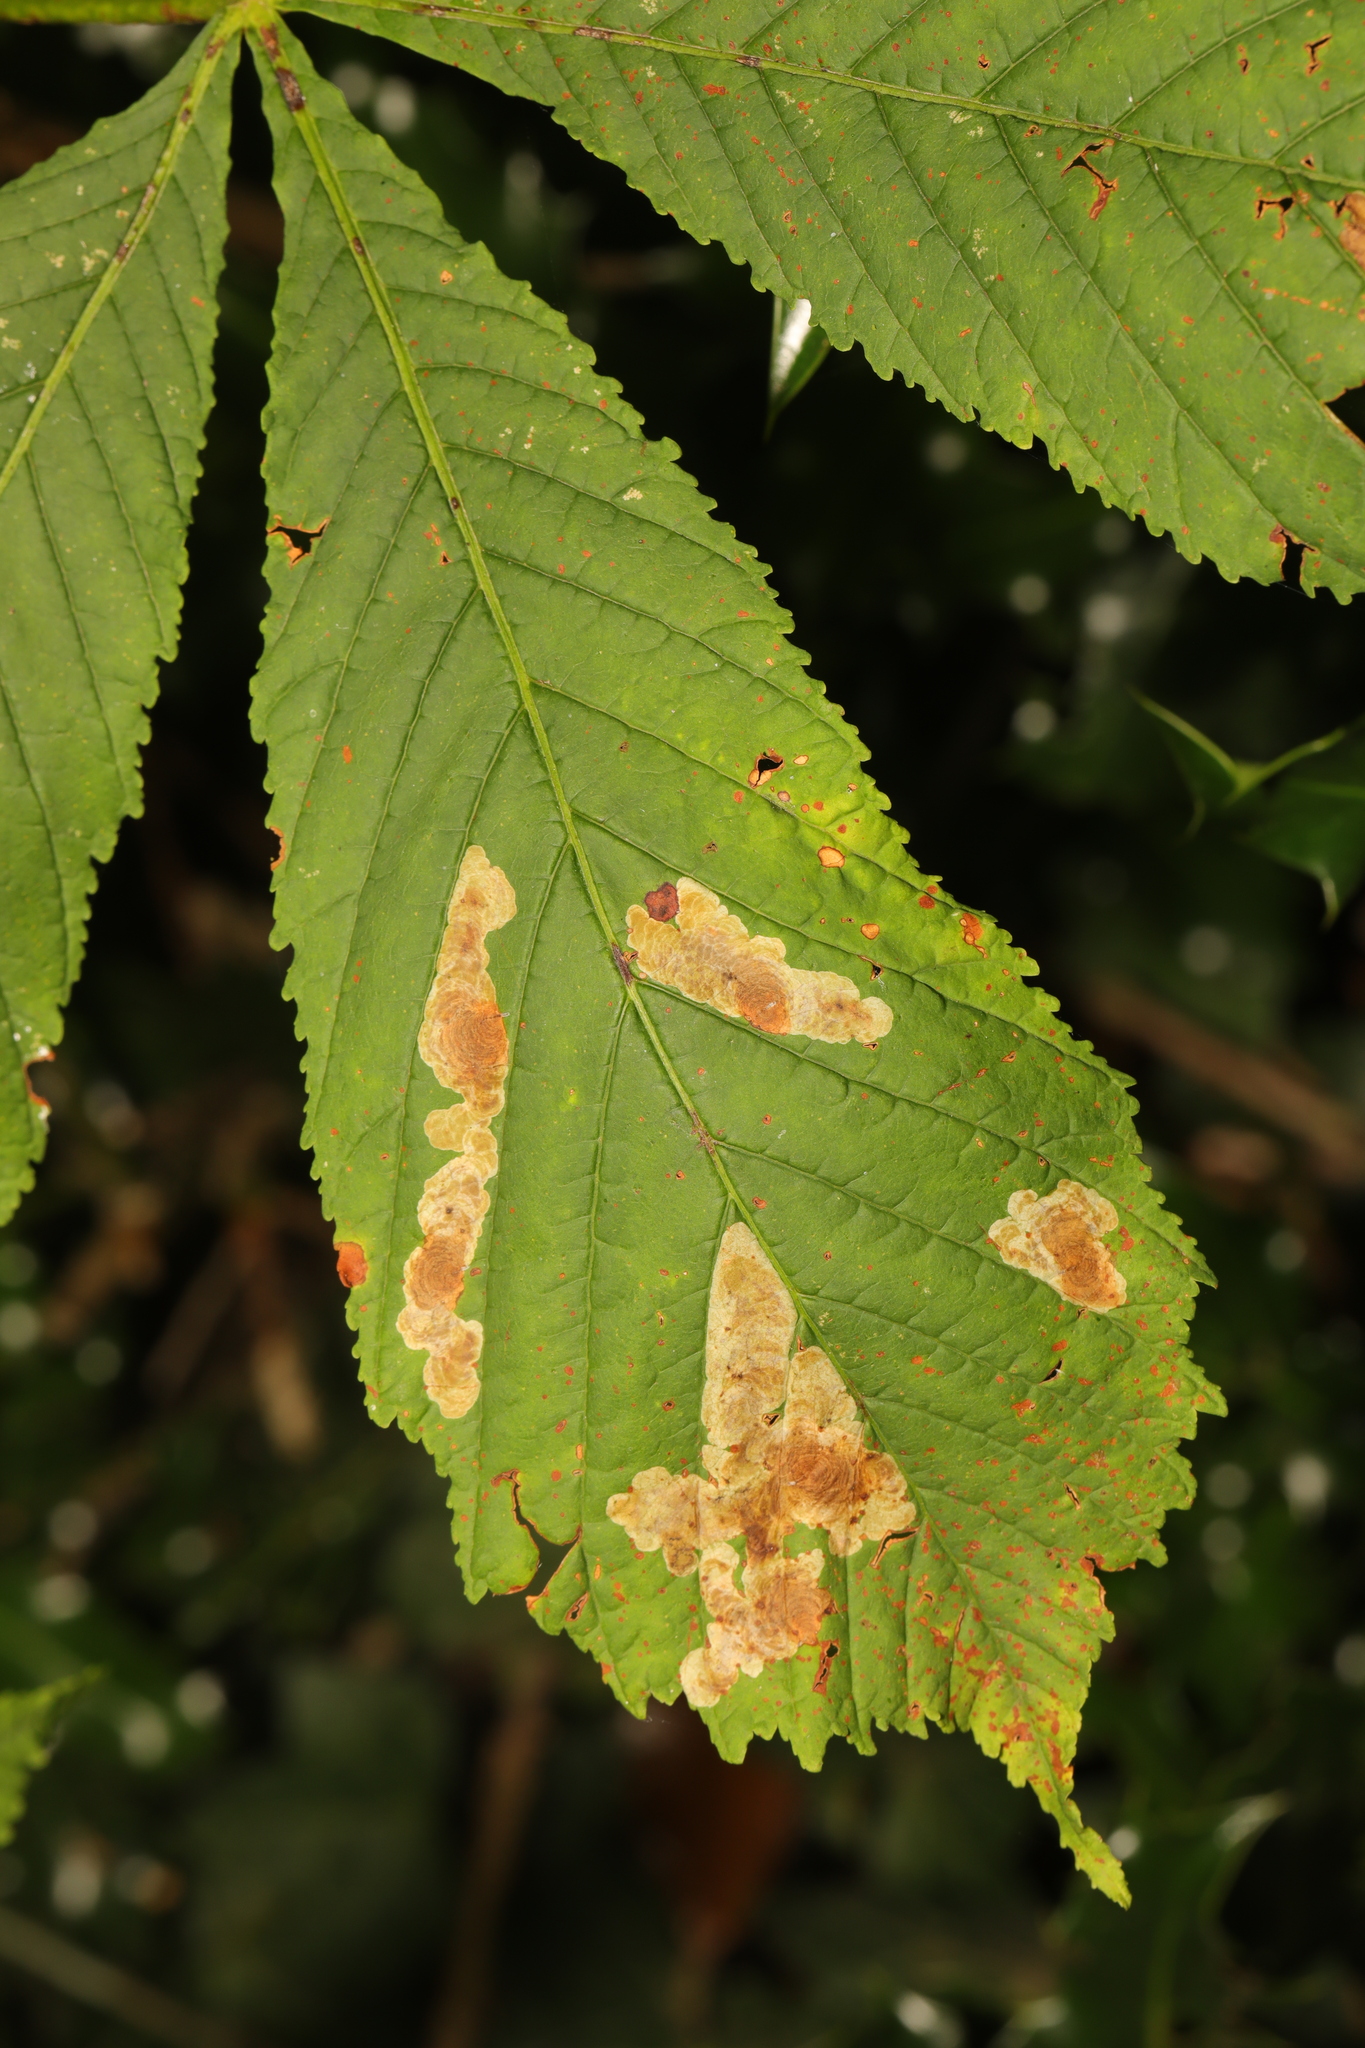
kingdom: Animalia
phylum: Arthropoda
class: Insecta
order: Lepidoptera
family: Gracillariidae
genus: Cameraria
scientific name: Cameraria ohridella
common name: Horse-chestnut leaf-miner
